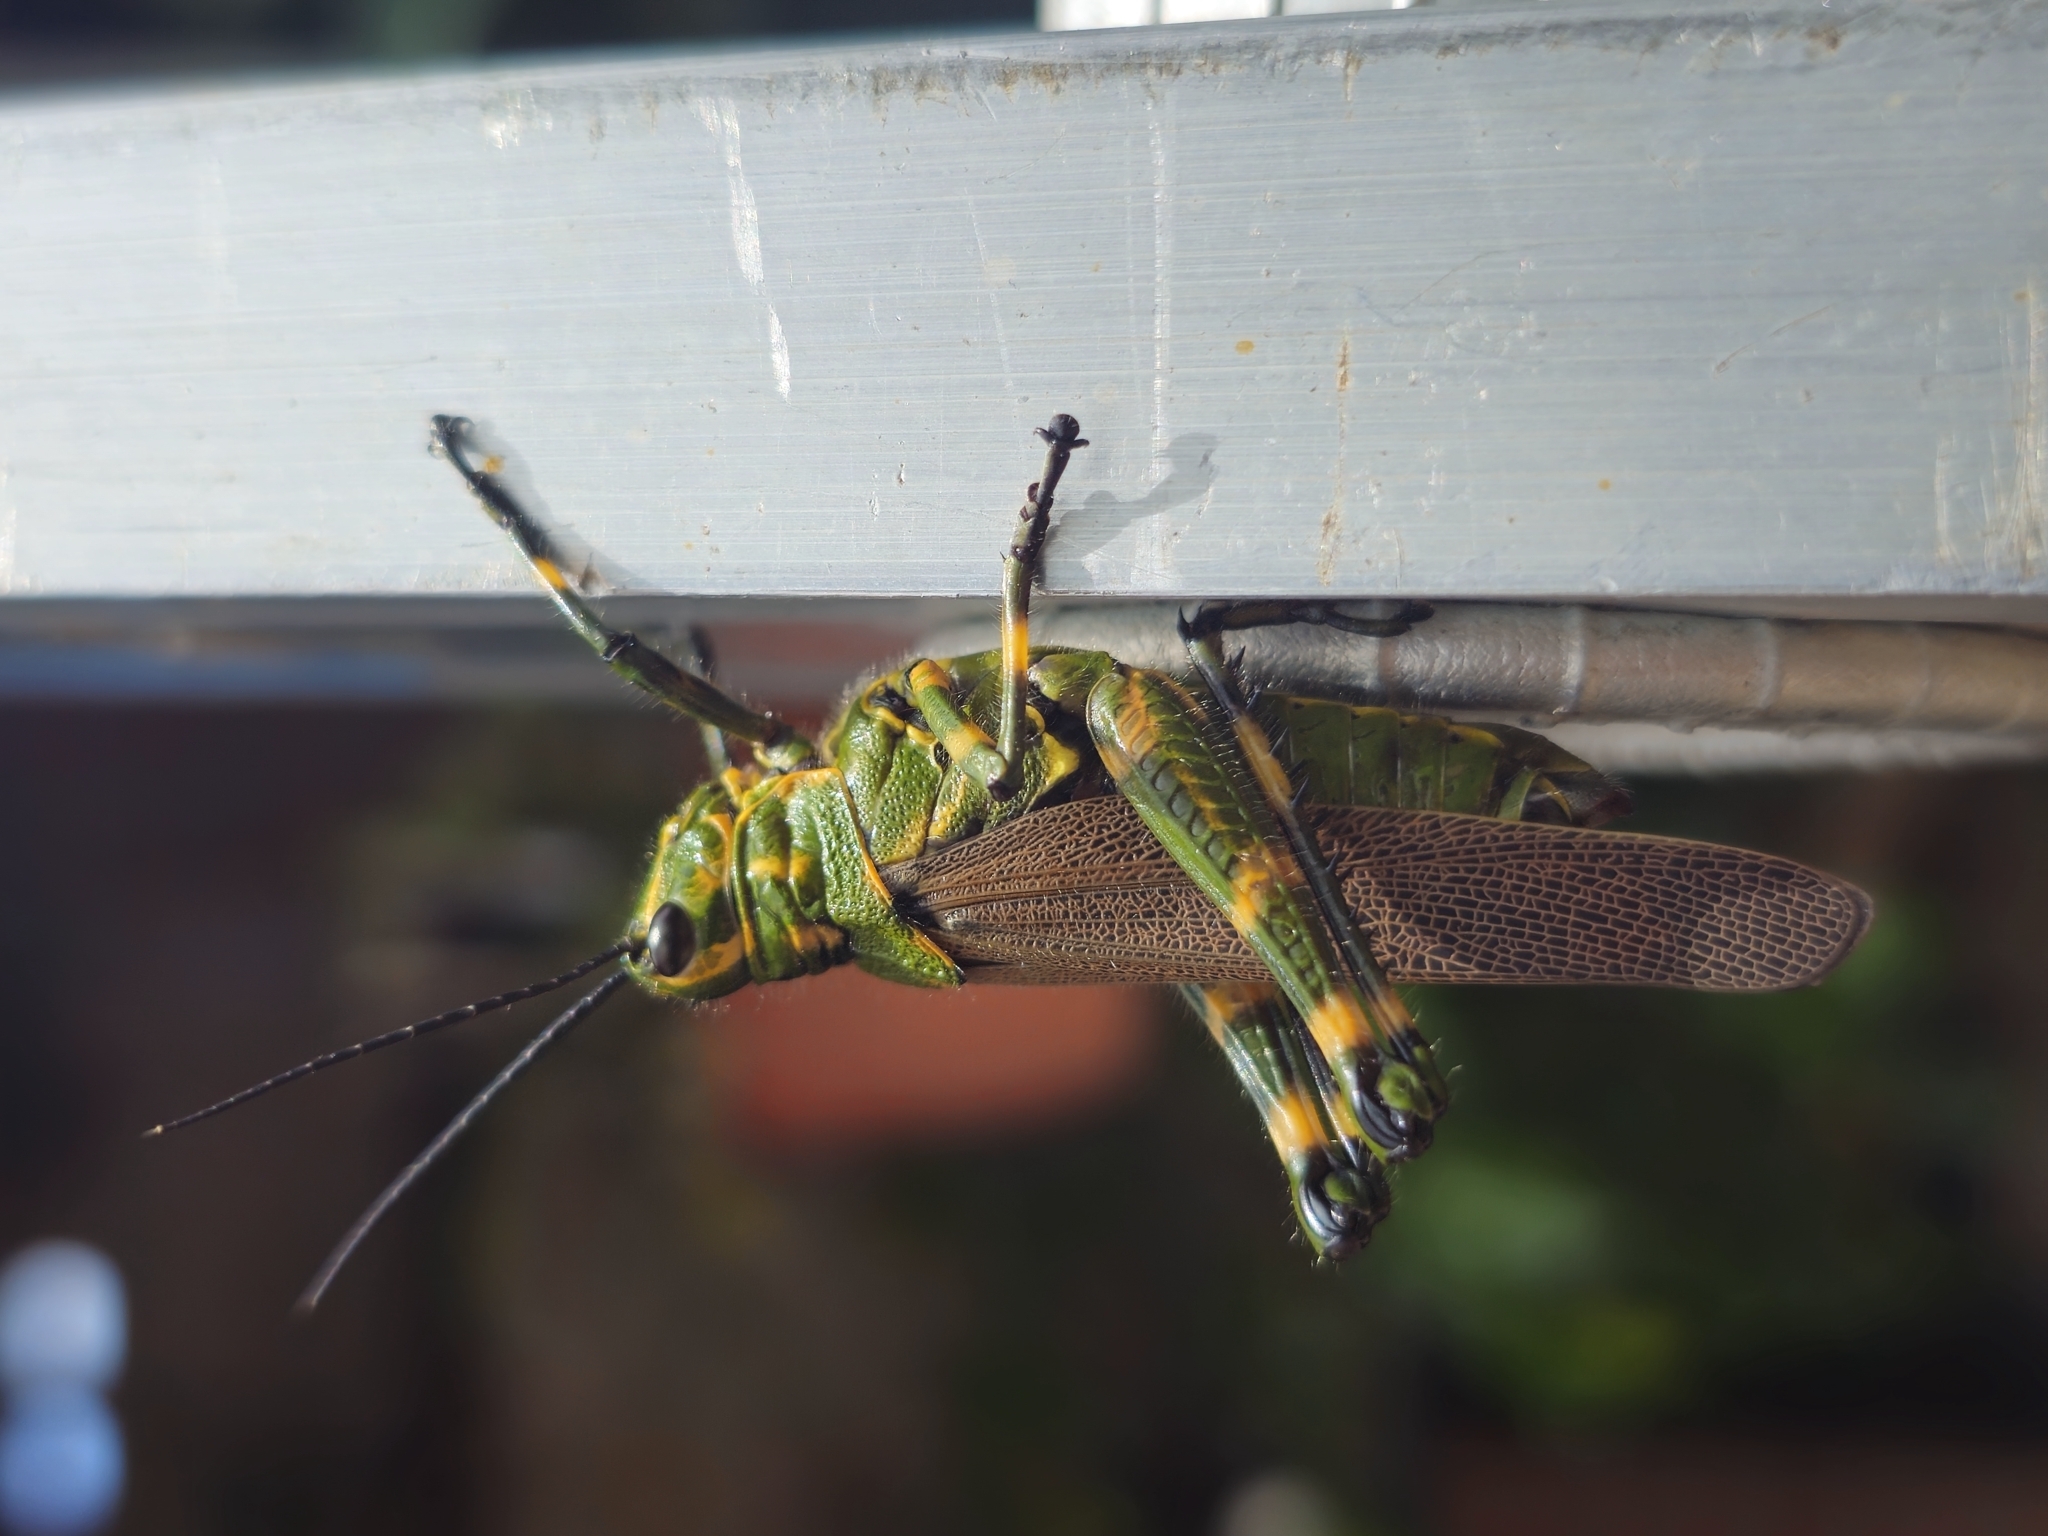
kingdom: Animalia
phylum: Arthropoda
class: Insecta
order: Orthoptera
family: Romaleidae
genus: Chromacris
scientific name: Chromacris speciosa
